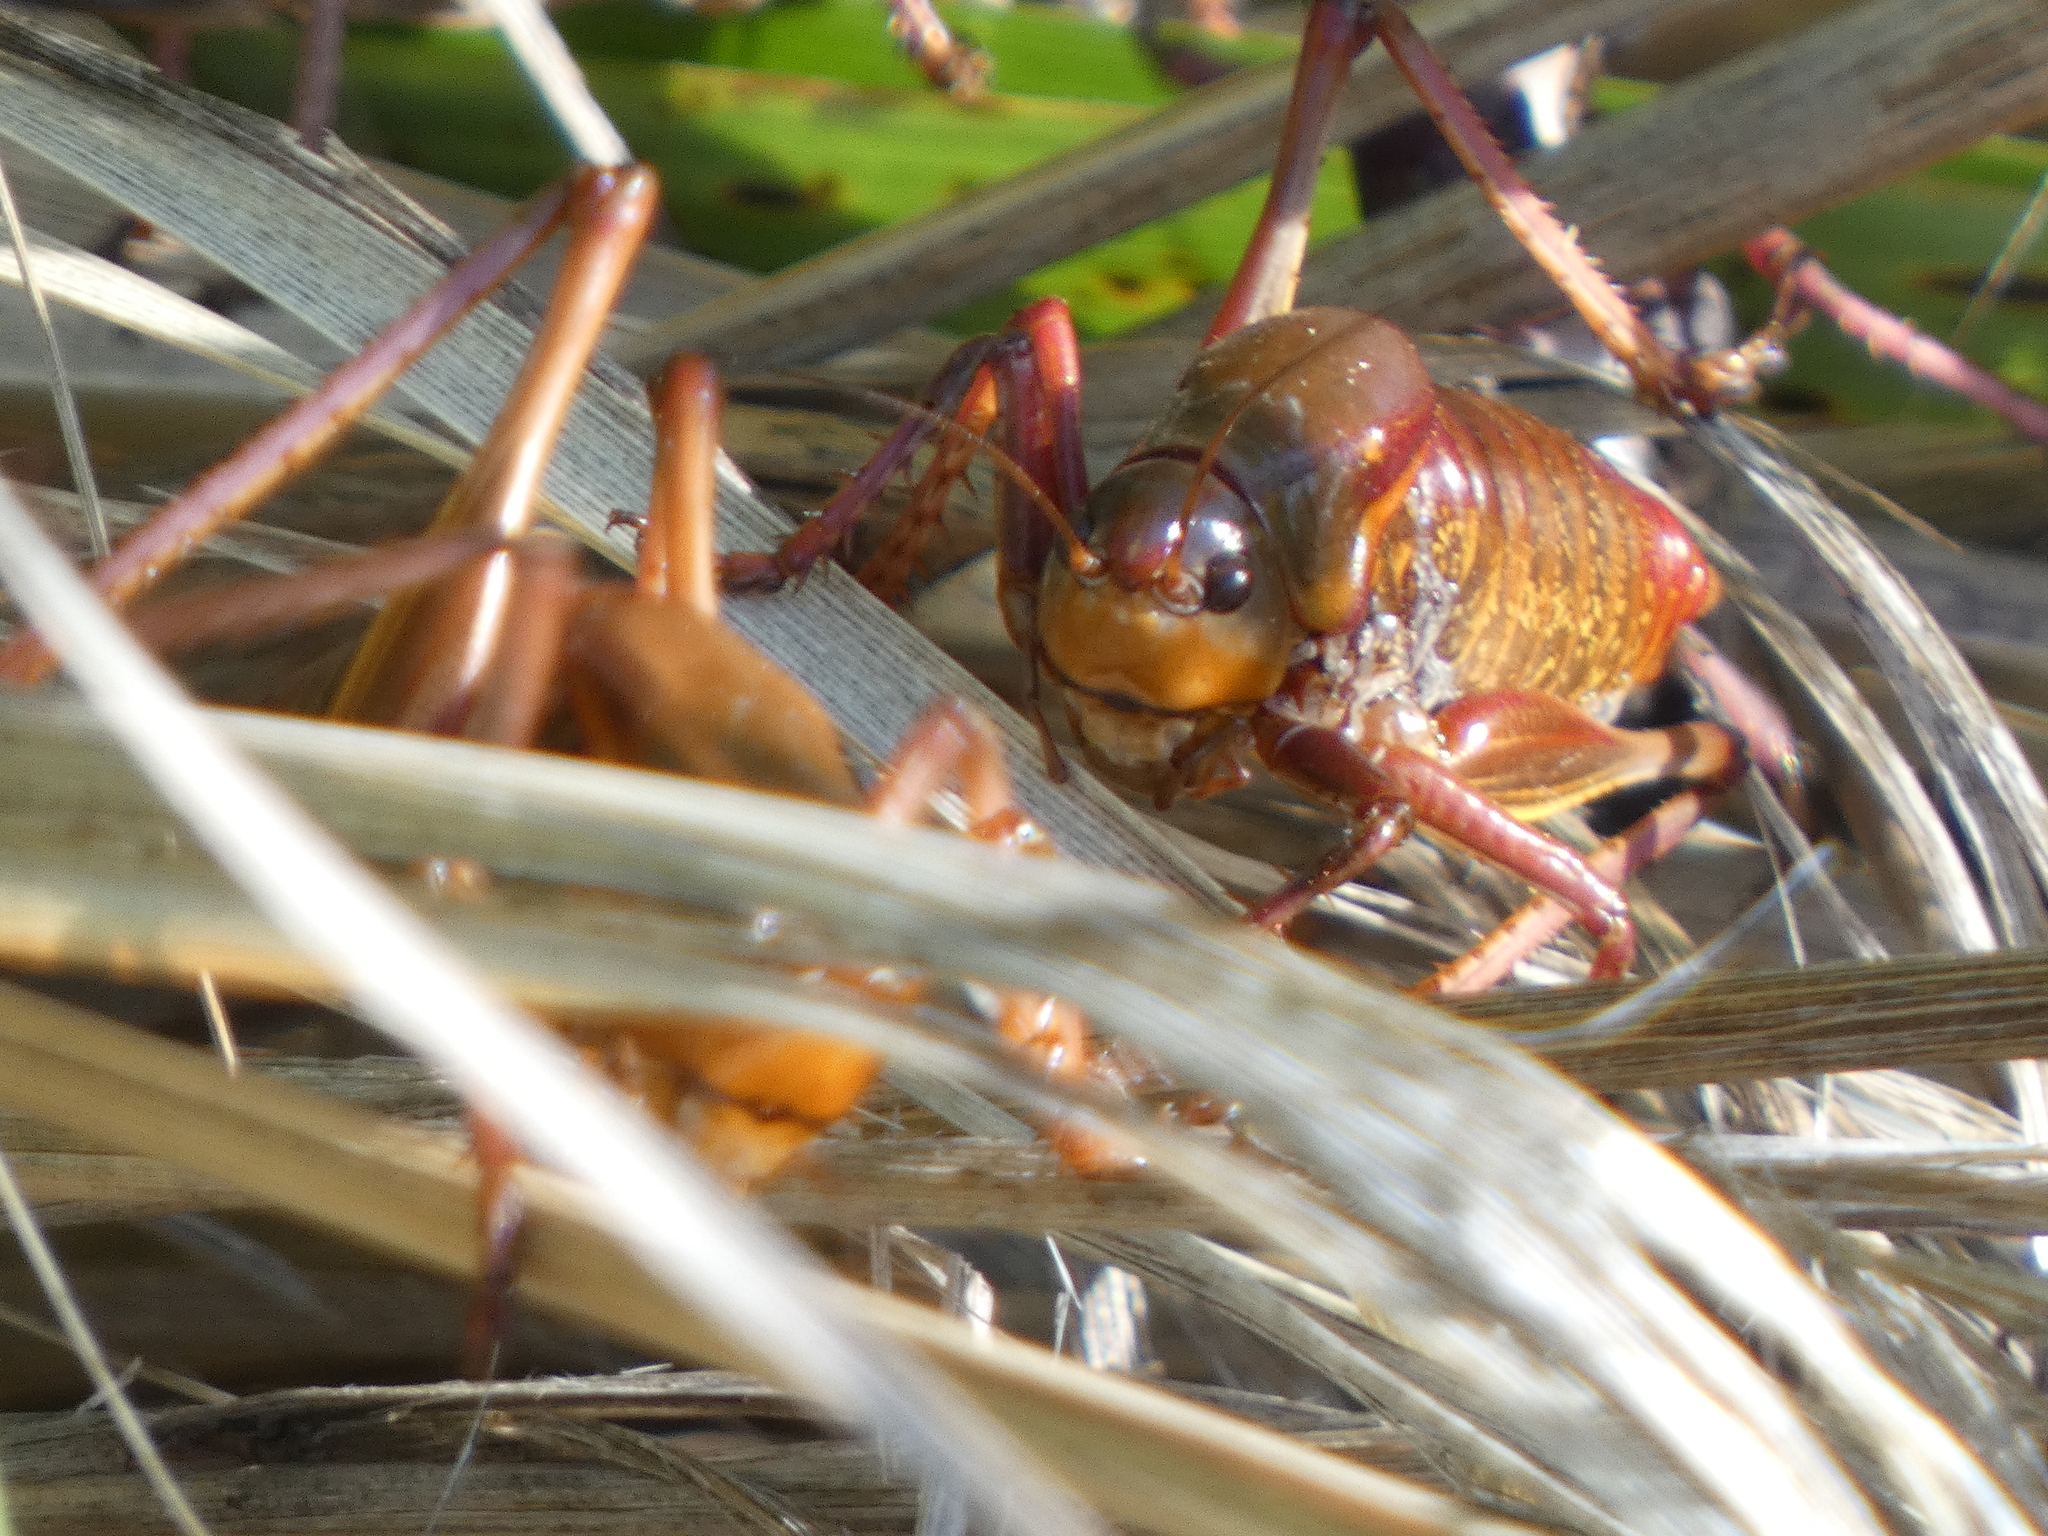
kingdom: Animalia
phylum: Arthropoda
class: Insecta
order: Orthoptera
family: Tettigoniidae
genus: Anabrus
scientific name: Anabrus simplex
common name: Mormon cricket
